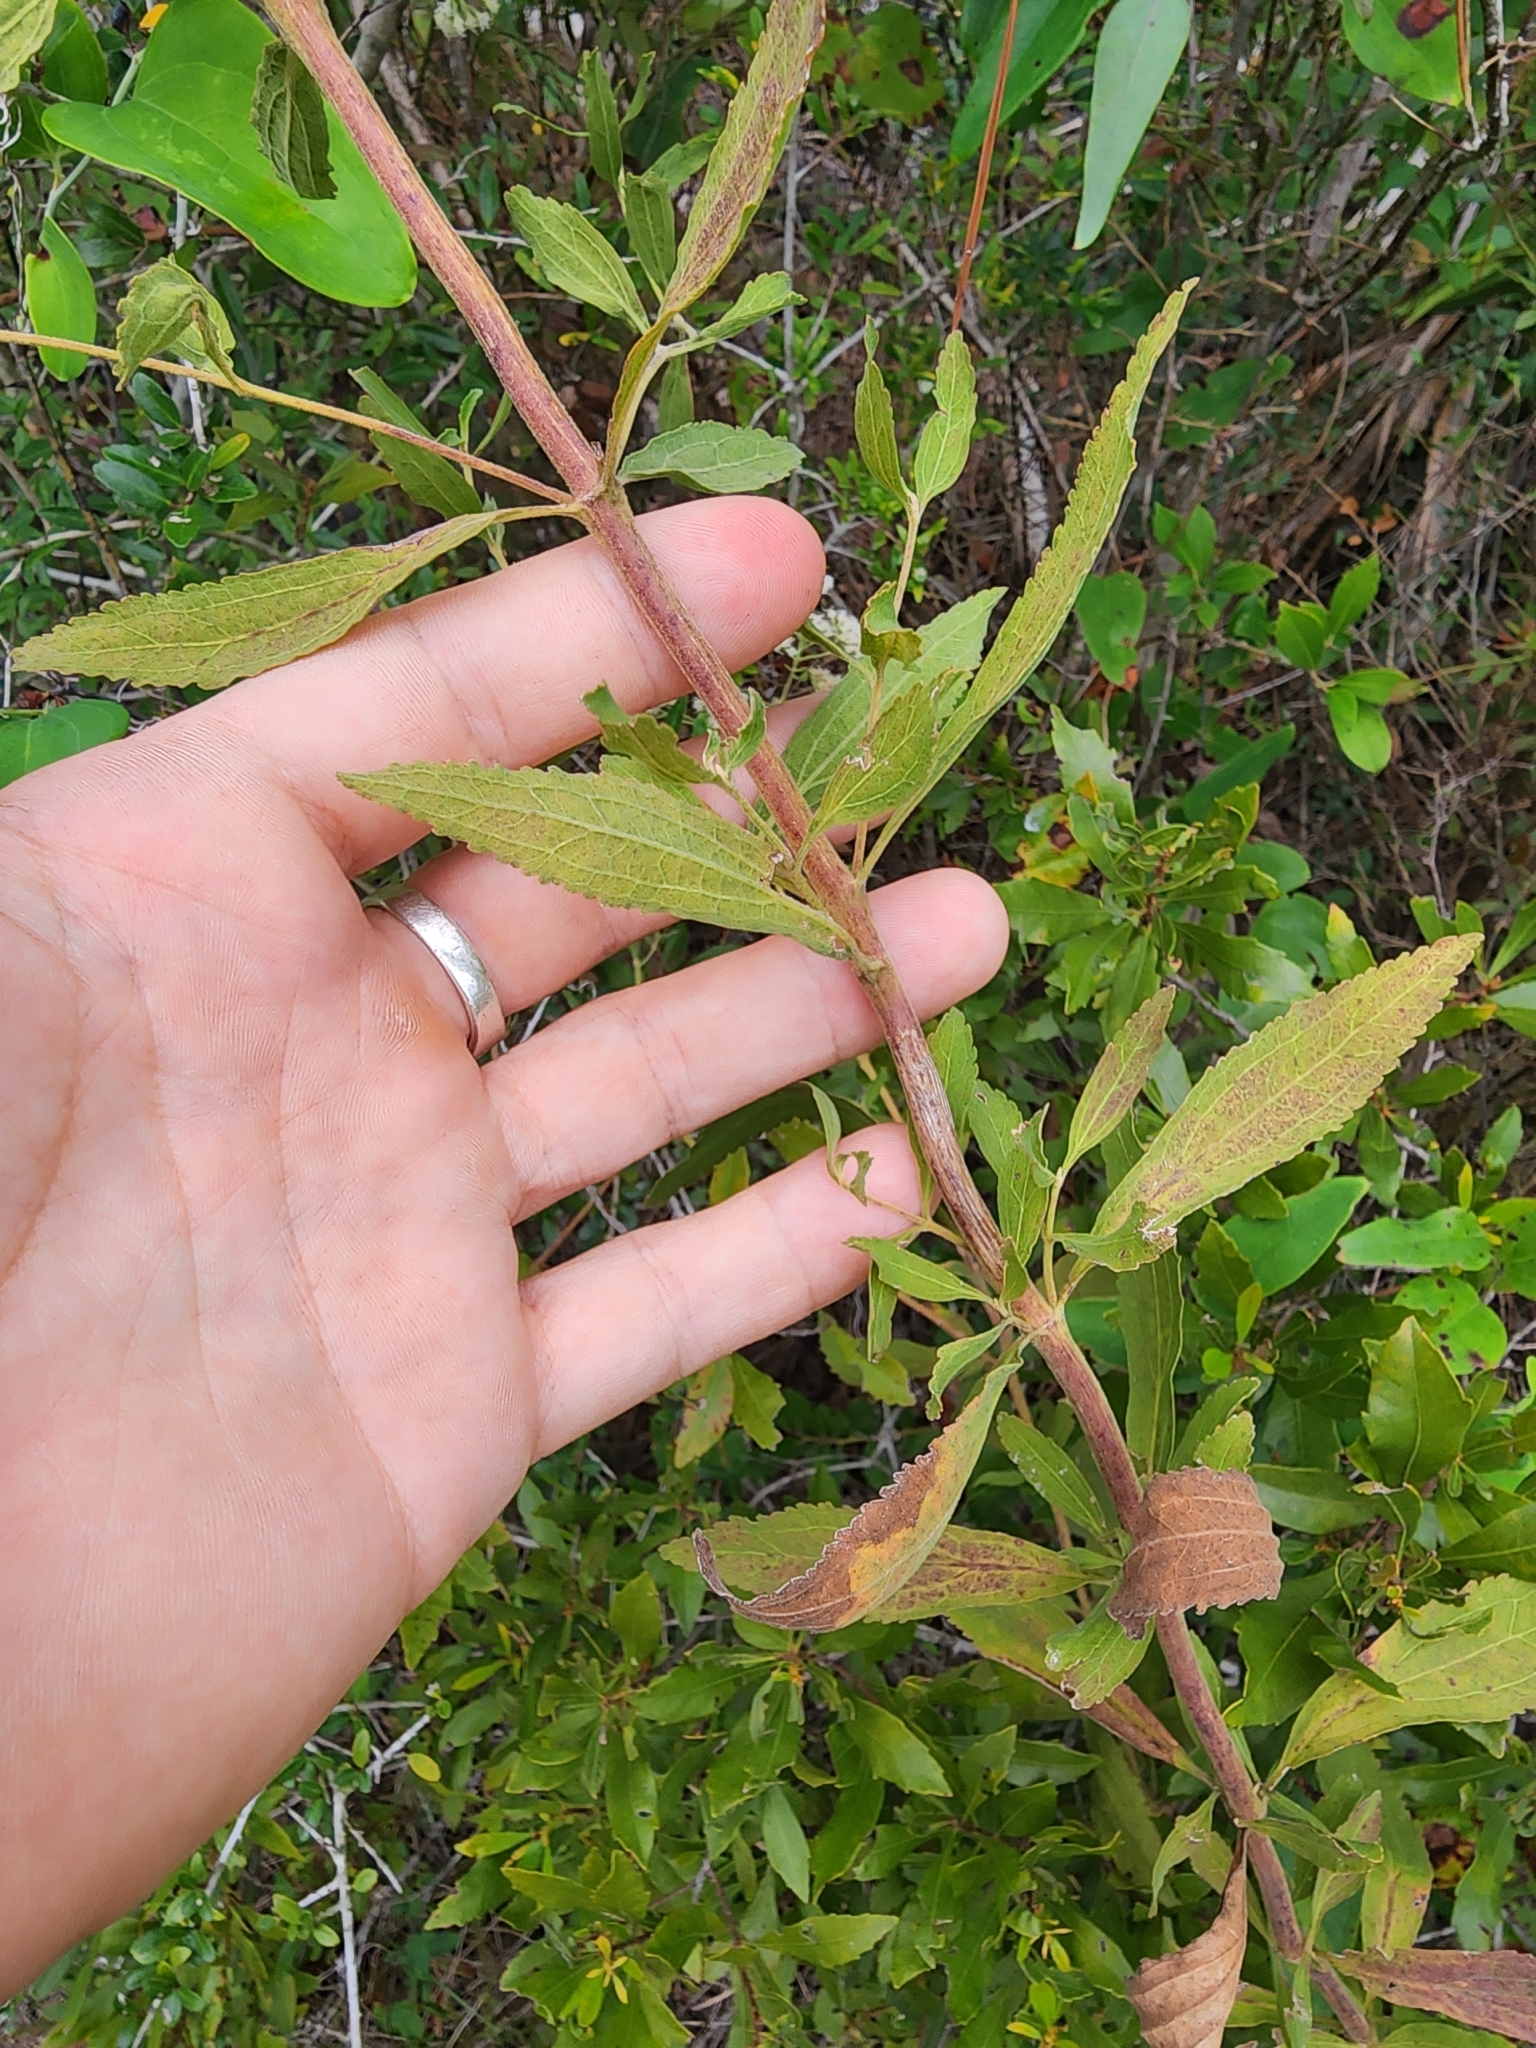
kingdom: Plantae
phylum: Tracheophyta
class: Magnoliopsida
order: Asterales
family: Asteraceae
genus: Eupatorium
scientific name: Eupatorium semiserratum
